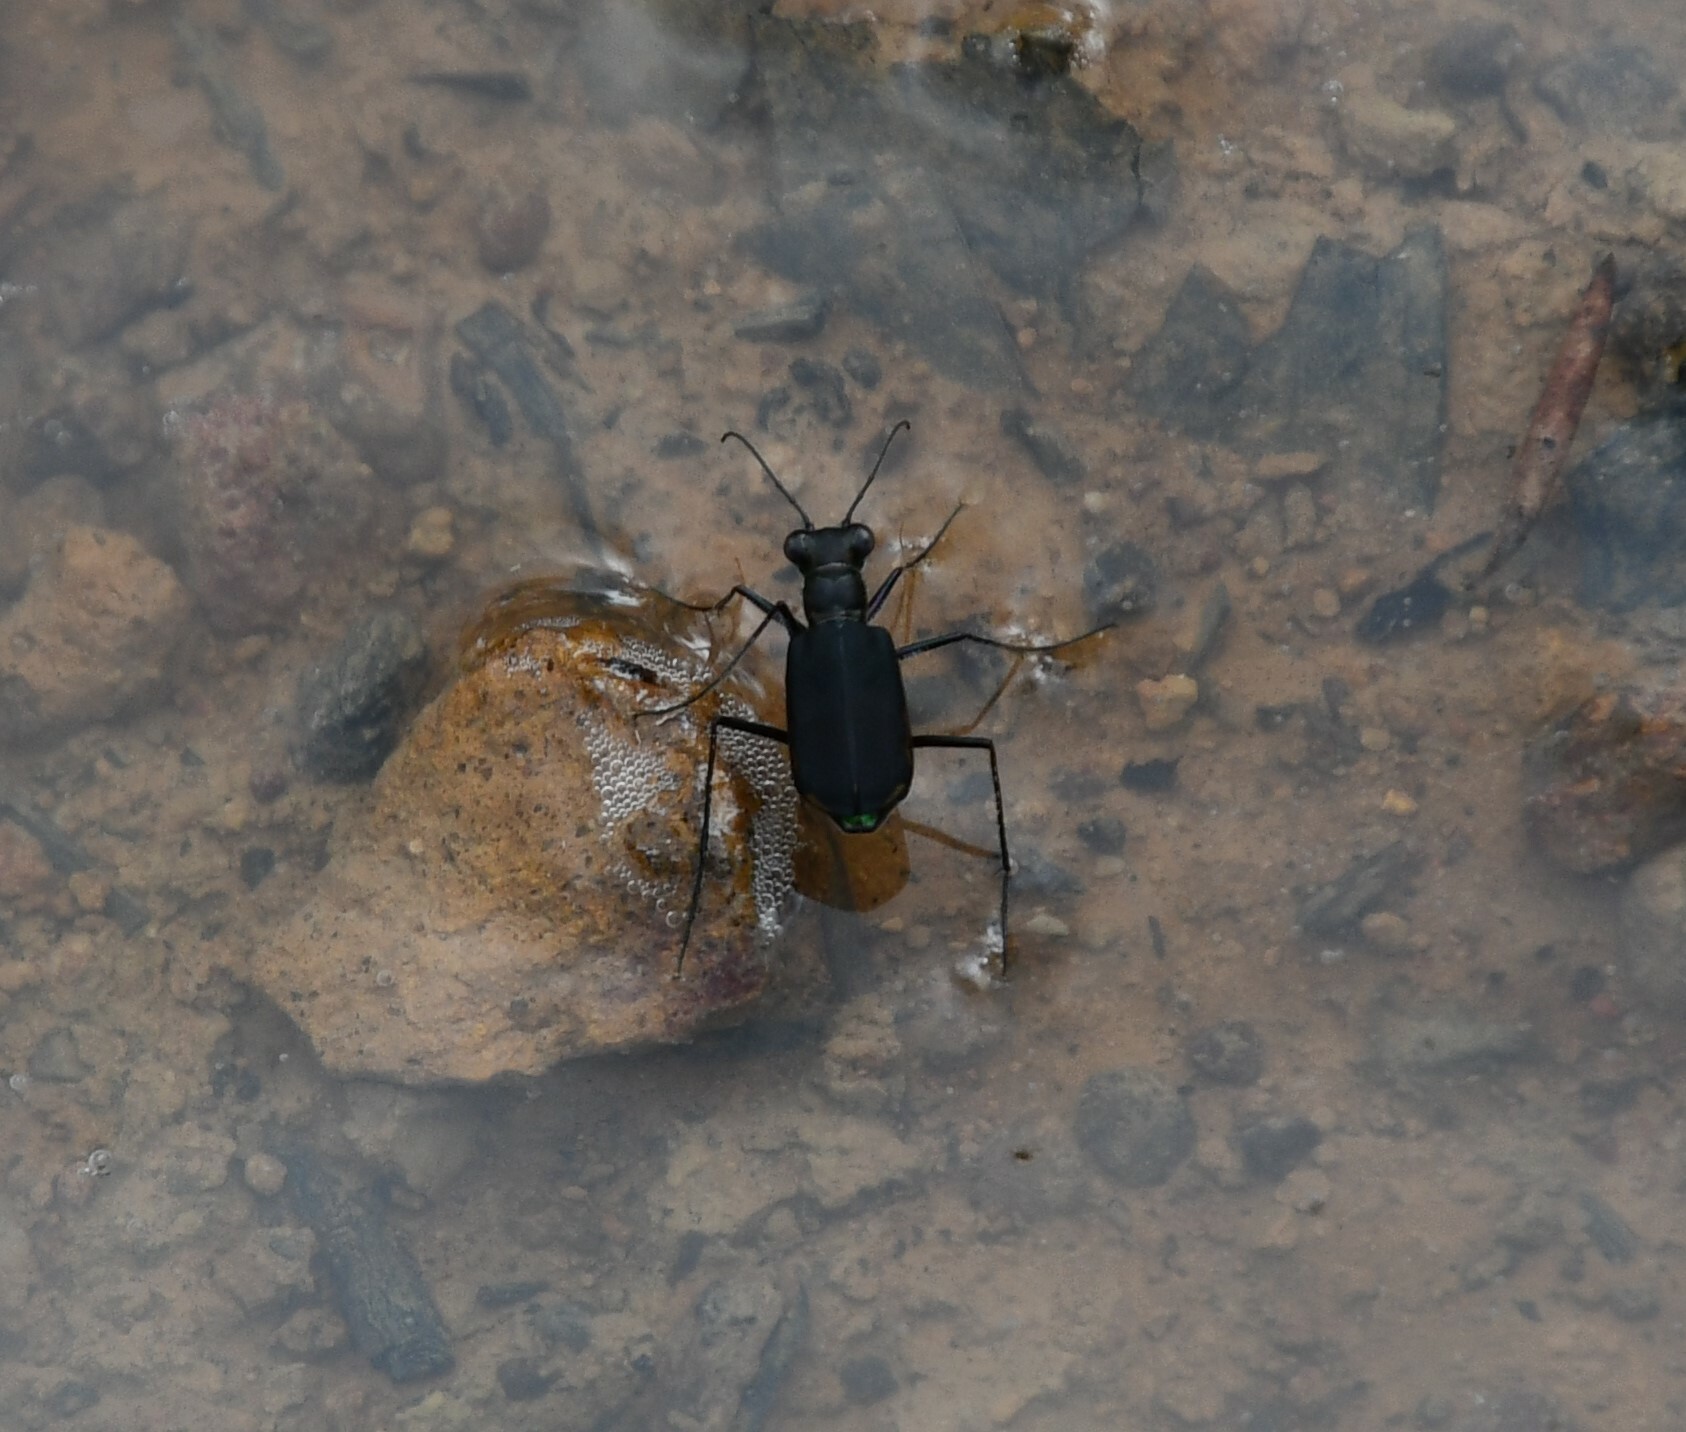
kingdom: Animalia
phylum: Arthropoda
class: Insecta
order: Coleoptera
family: Carabidae
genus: Myriochila
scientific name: Myriochila semicincta
